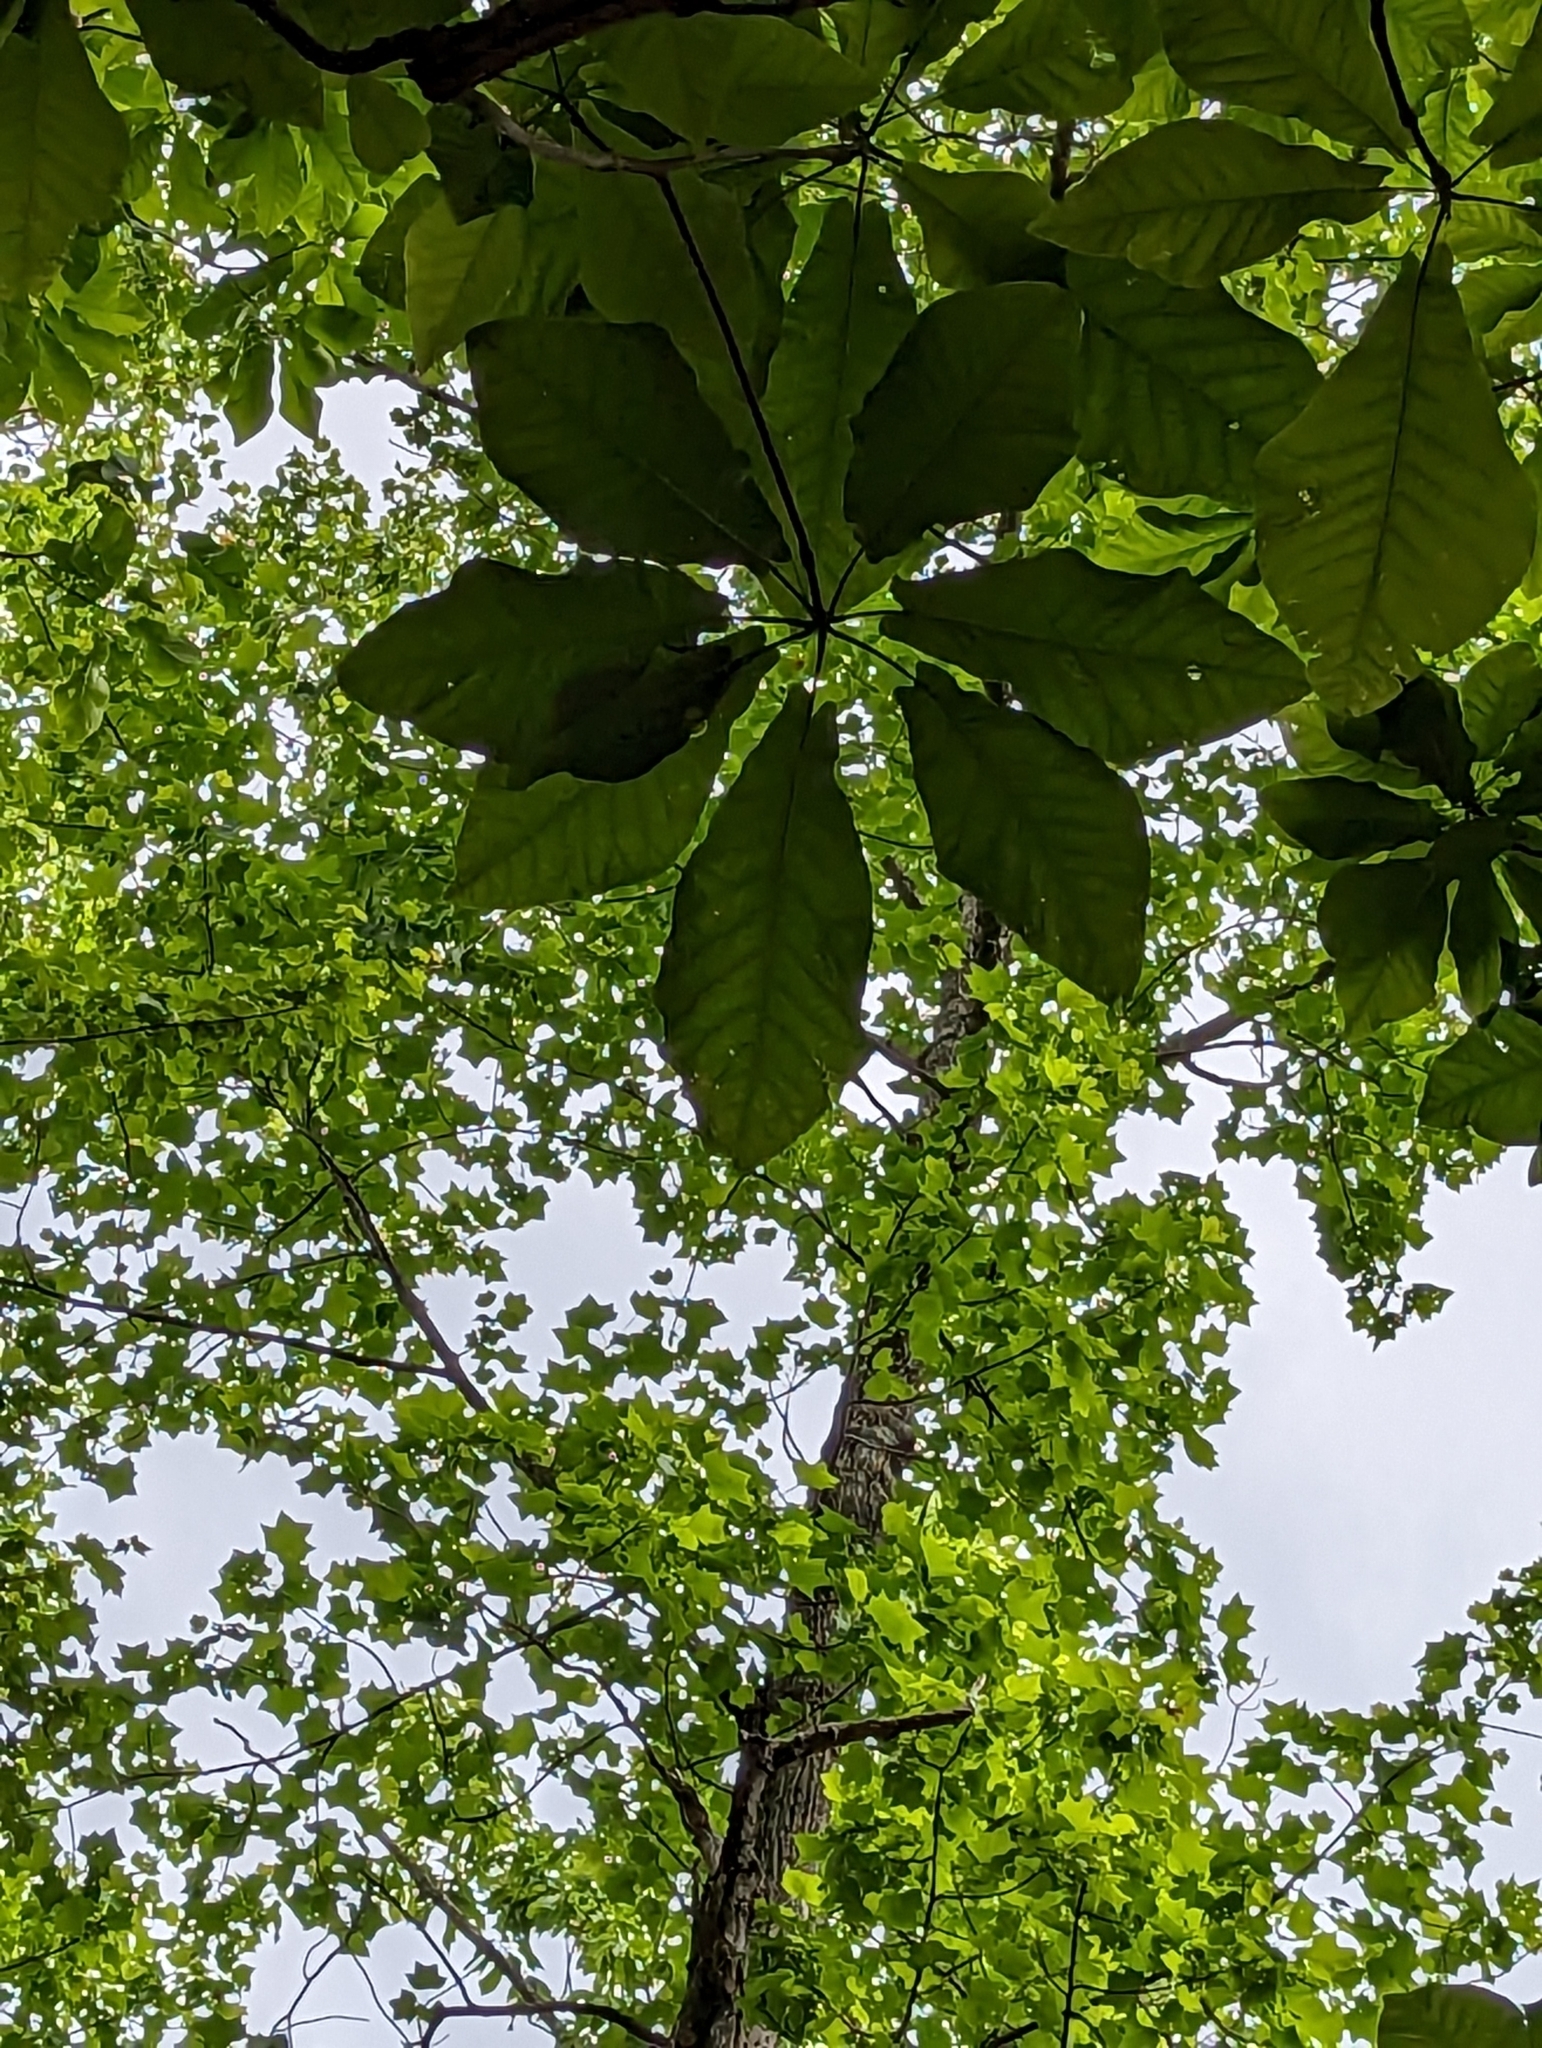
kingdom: Plantae
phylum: Tracheophyta
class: Magnoliopsida
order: Magnoliales
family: Magnoliaceae
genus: Magnolia
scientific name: Magnolia fraseri
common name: Fraser's magnolia
